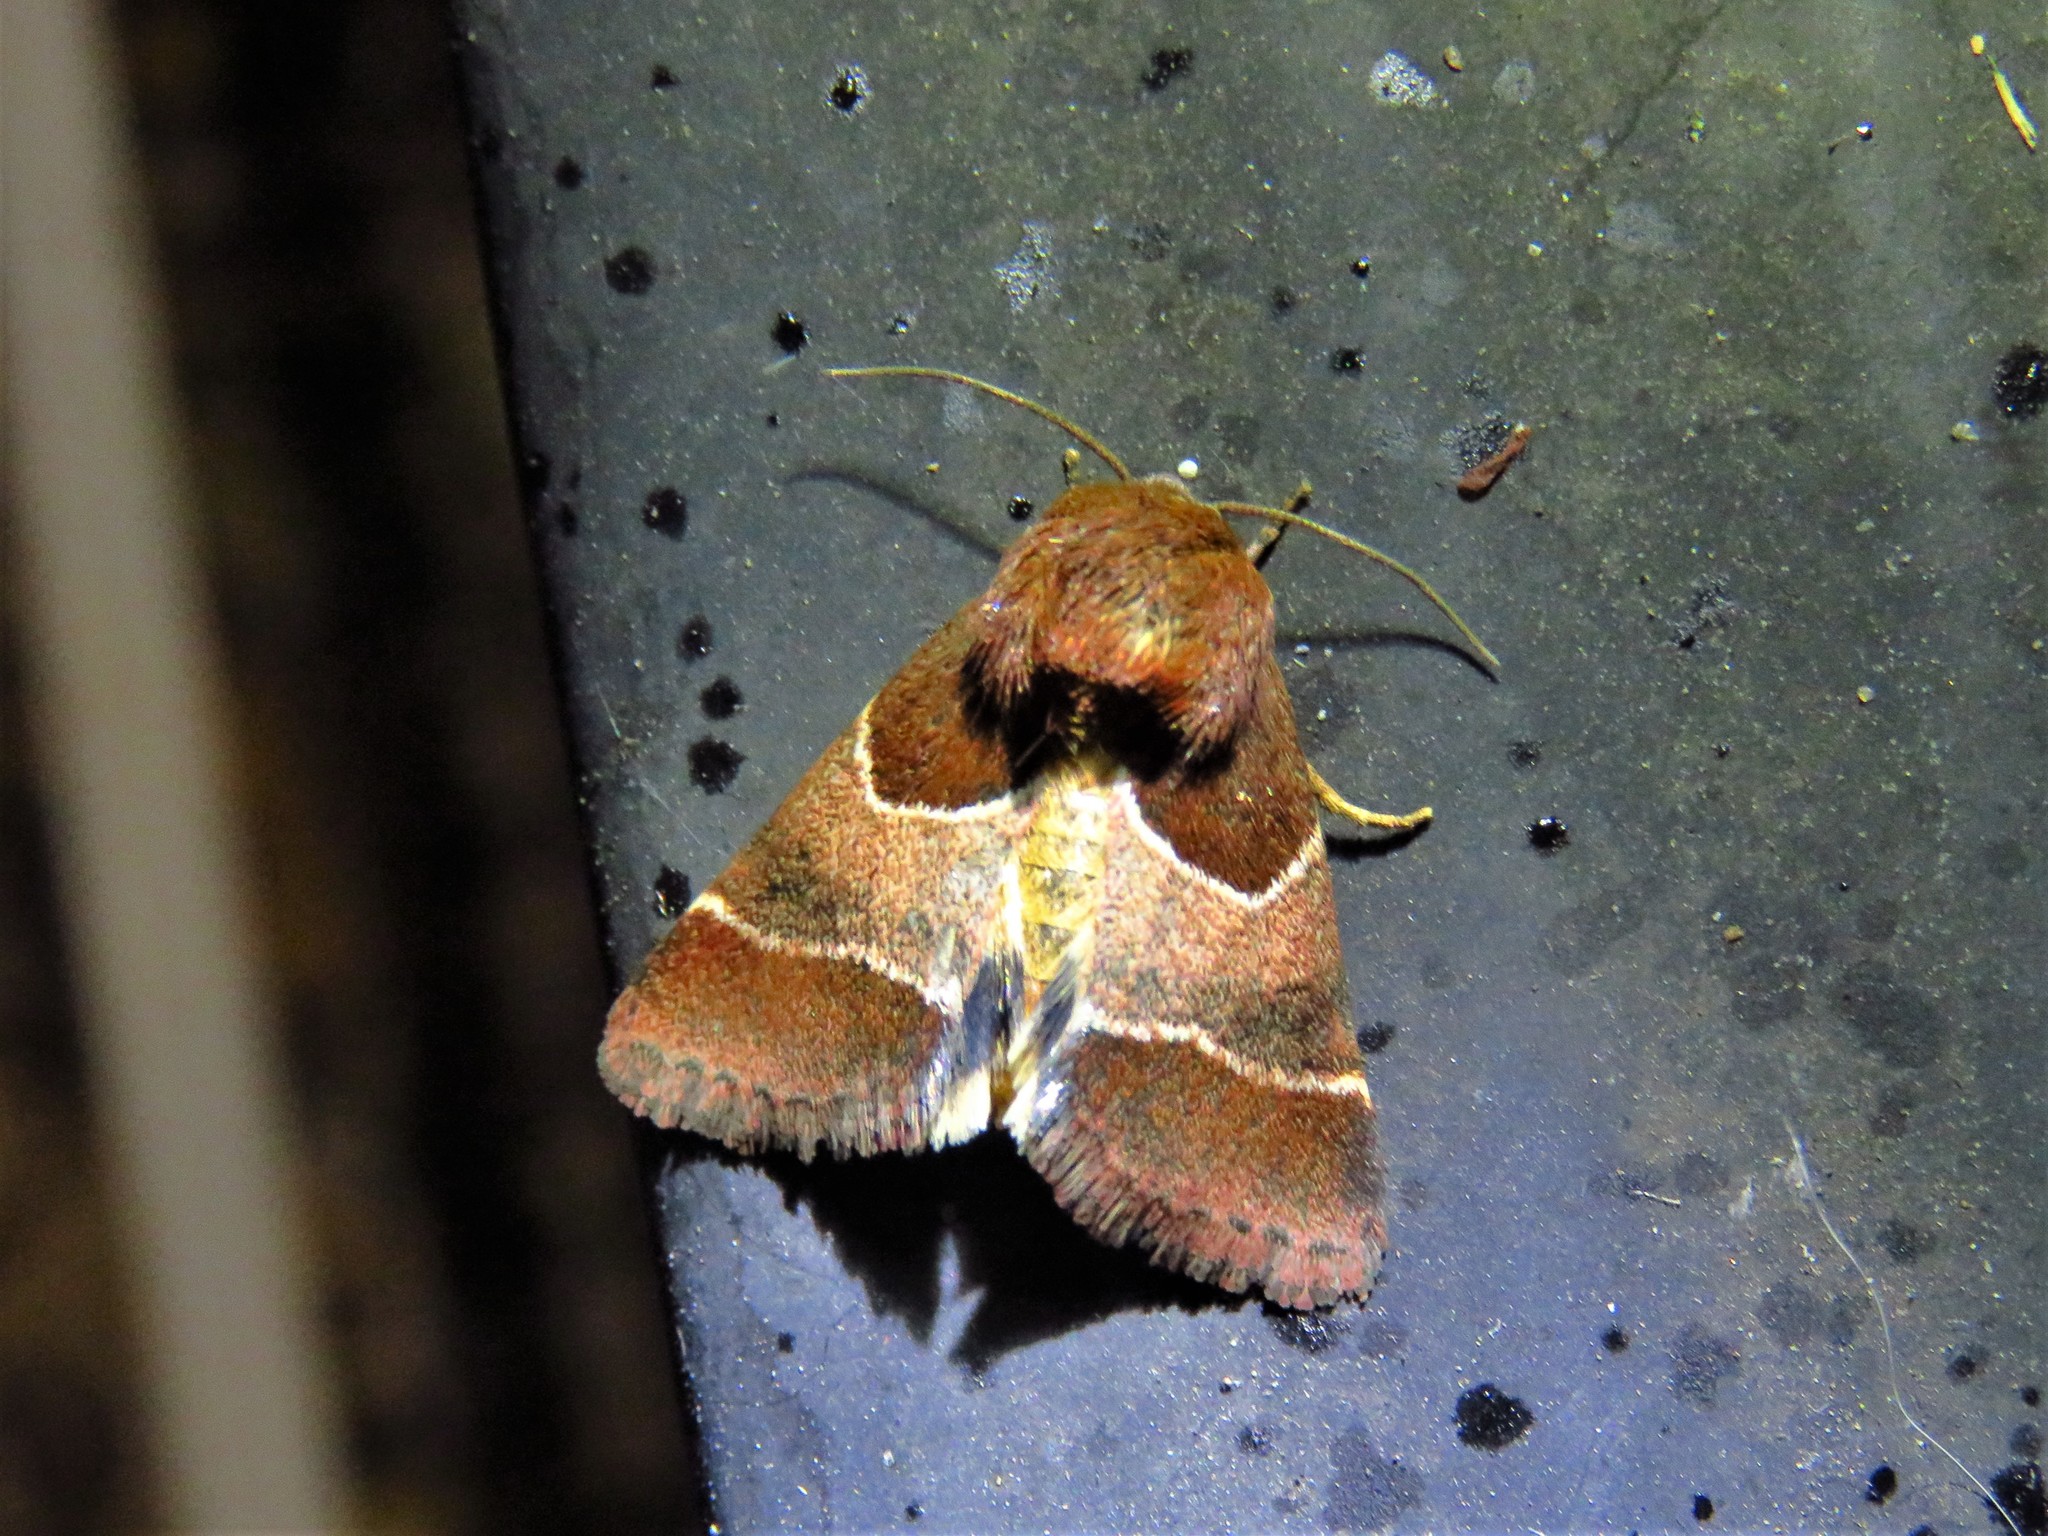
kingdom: Animalia
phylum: Arthropoda
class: Insecta
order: Lepidoptera
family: Noctuidae
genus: Schinia
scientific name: Schinia arcigera
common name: Arcigera flower moth
